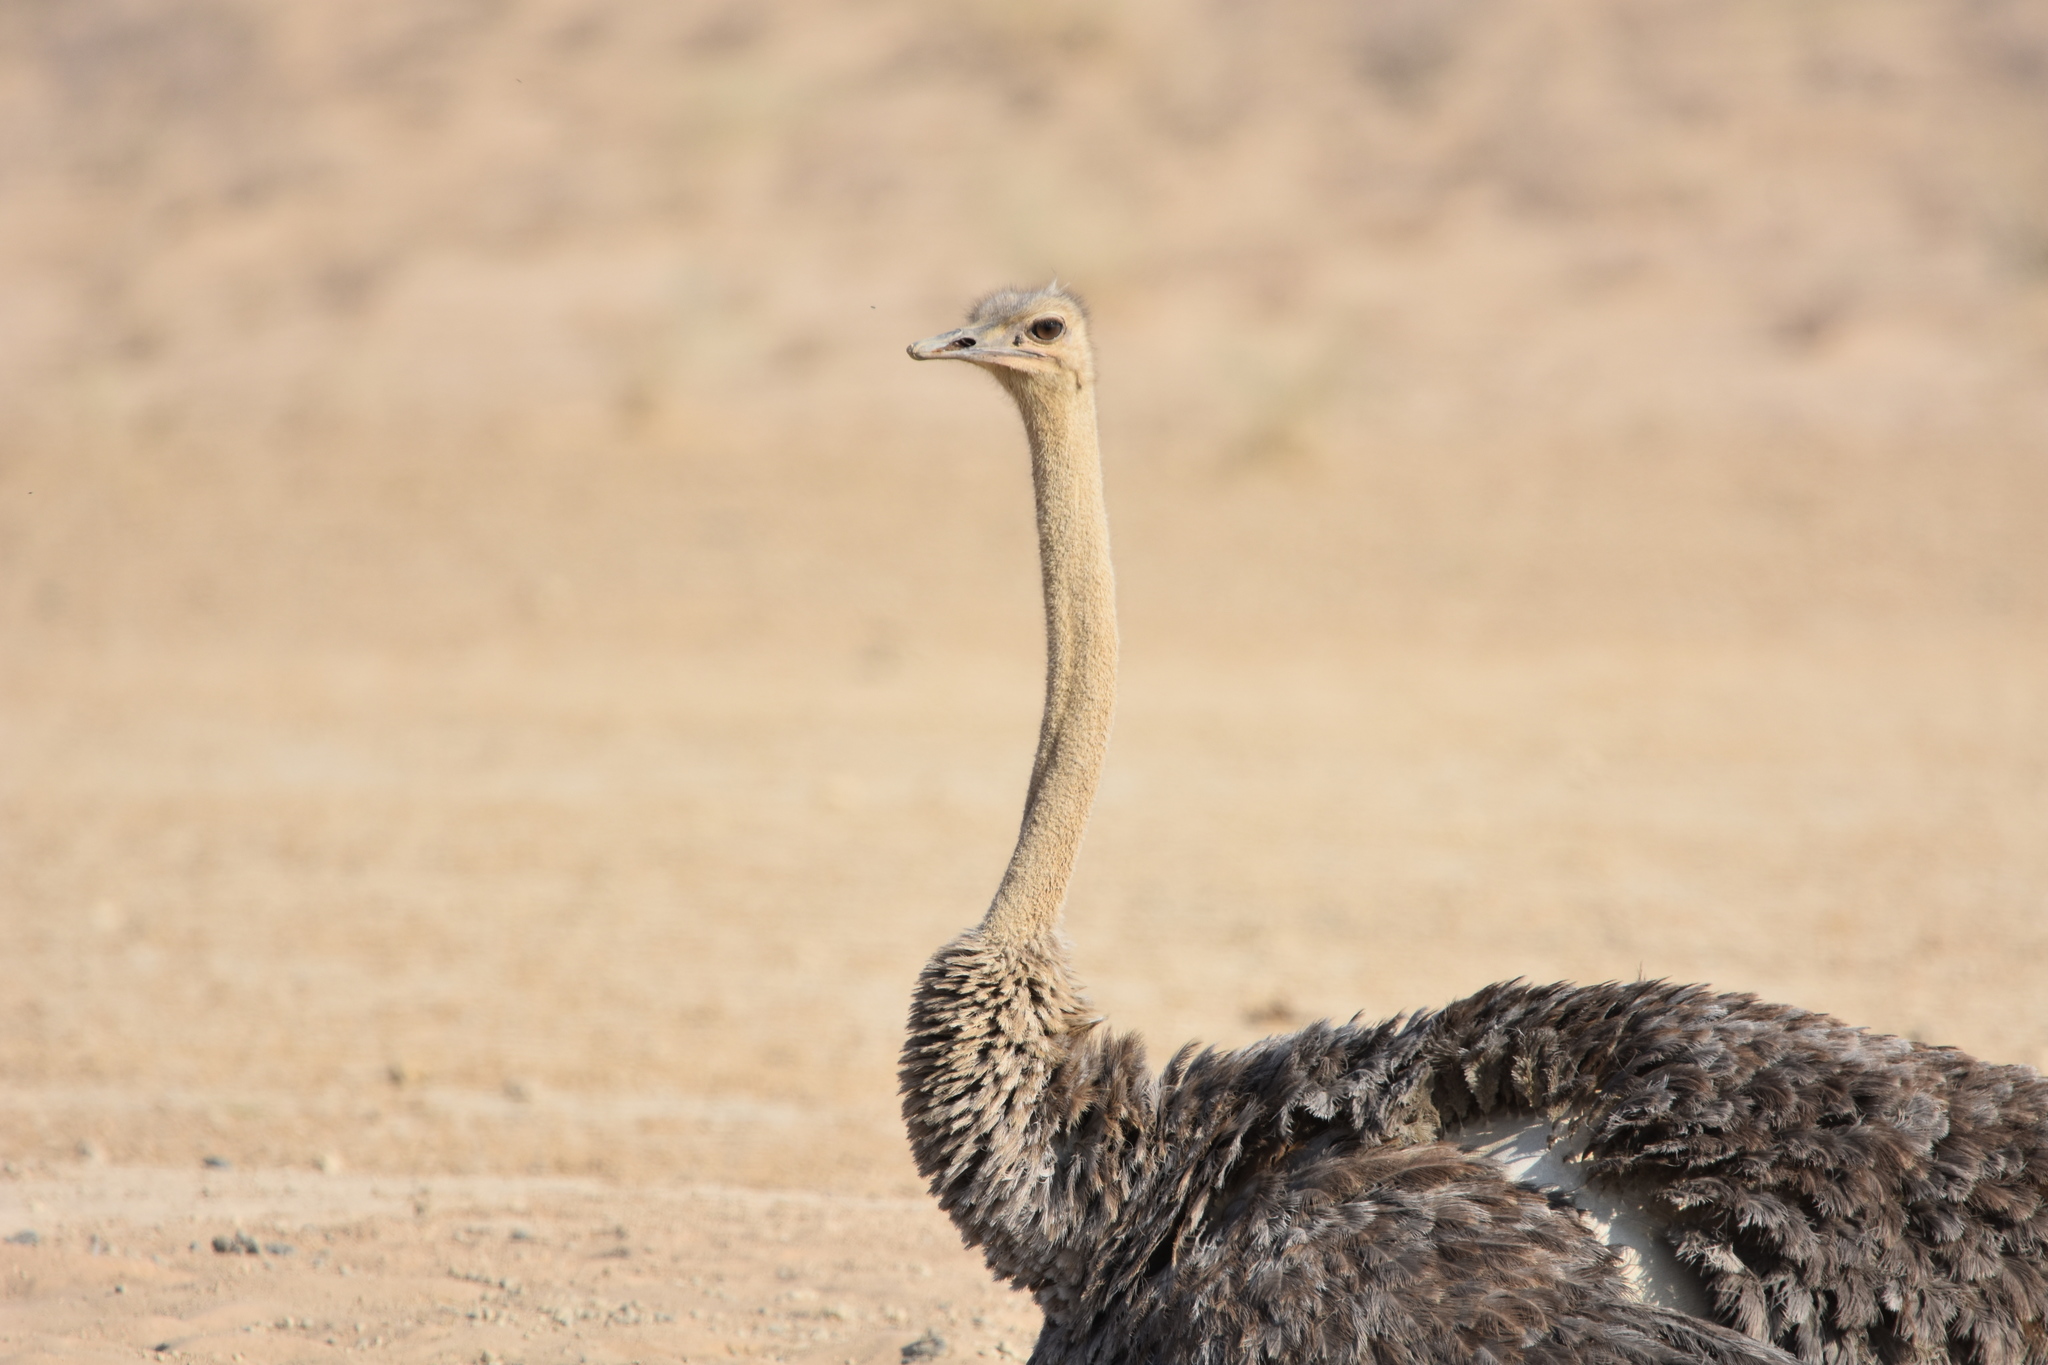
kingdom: Animalia
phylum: Chordata
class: Aves
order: Struthioniformes
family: Struthionidae
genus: Struthio
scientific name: Struthio camelus
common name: Common ostrich
